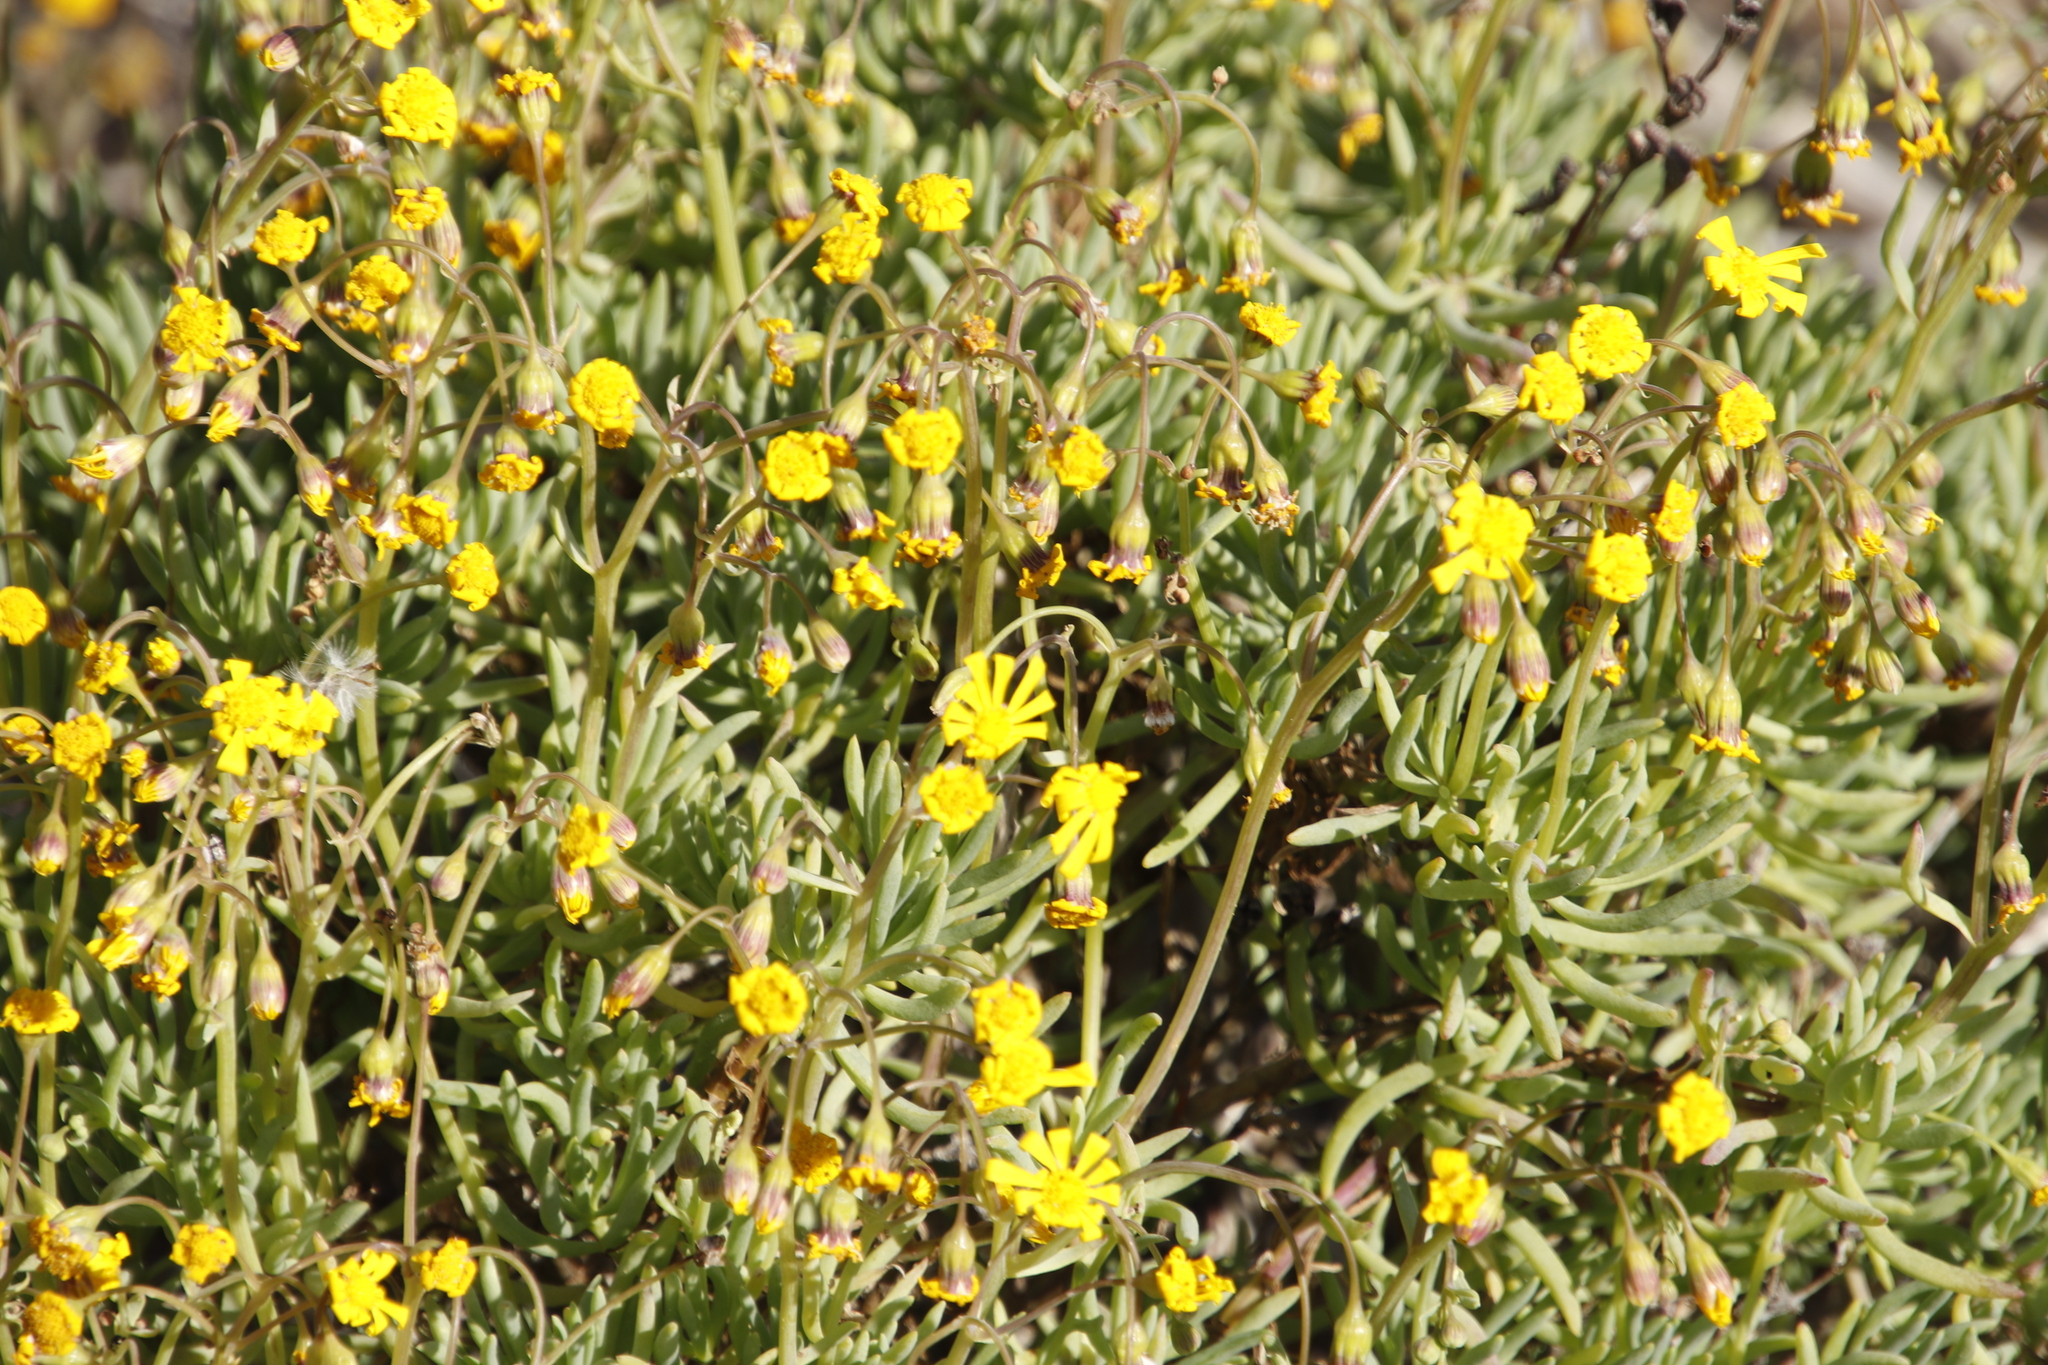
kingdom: Plantae
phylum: Tracheophyta
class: Magnoliopsida
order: Asterales
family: Asteraceae
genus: Crassothonna
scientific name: Crassothonna cylindrica
